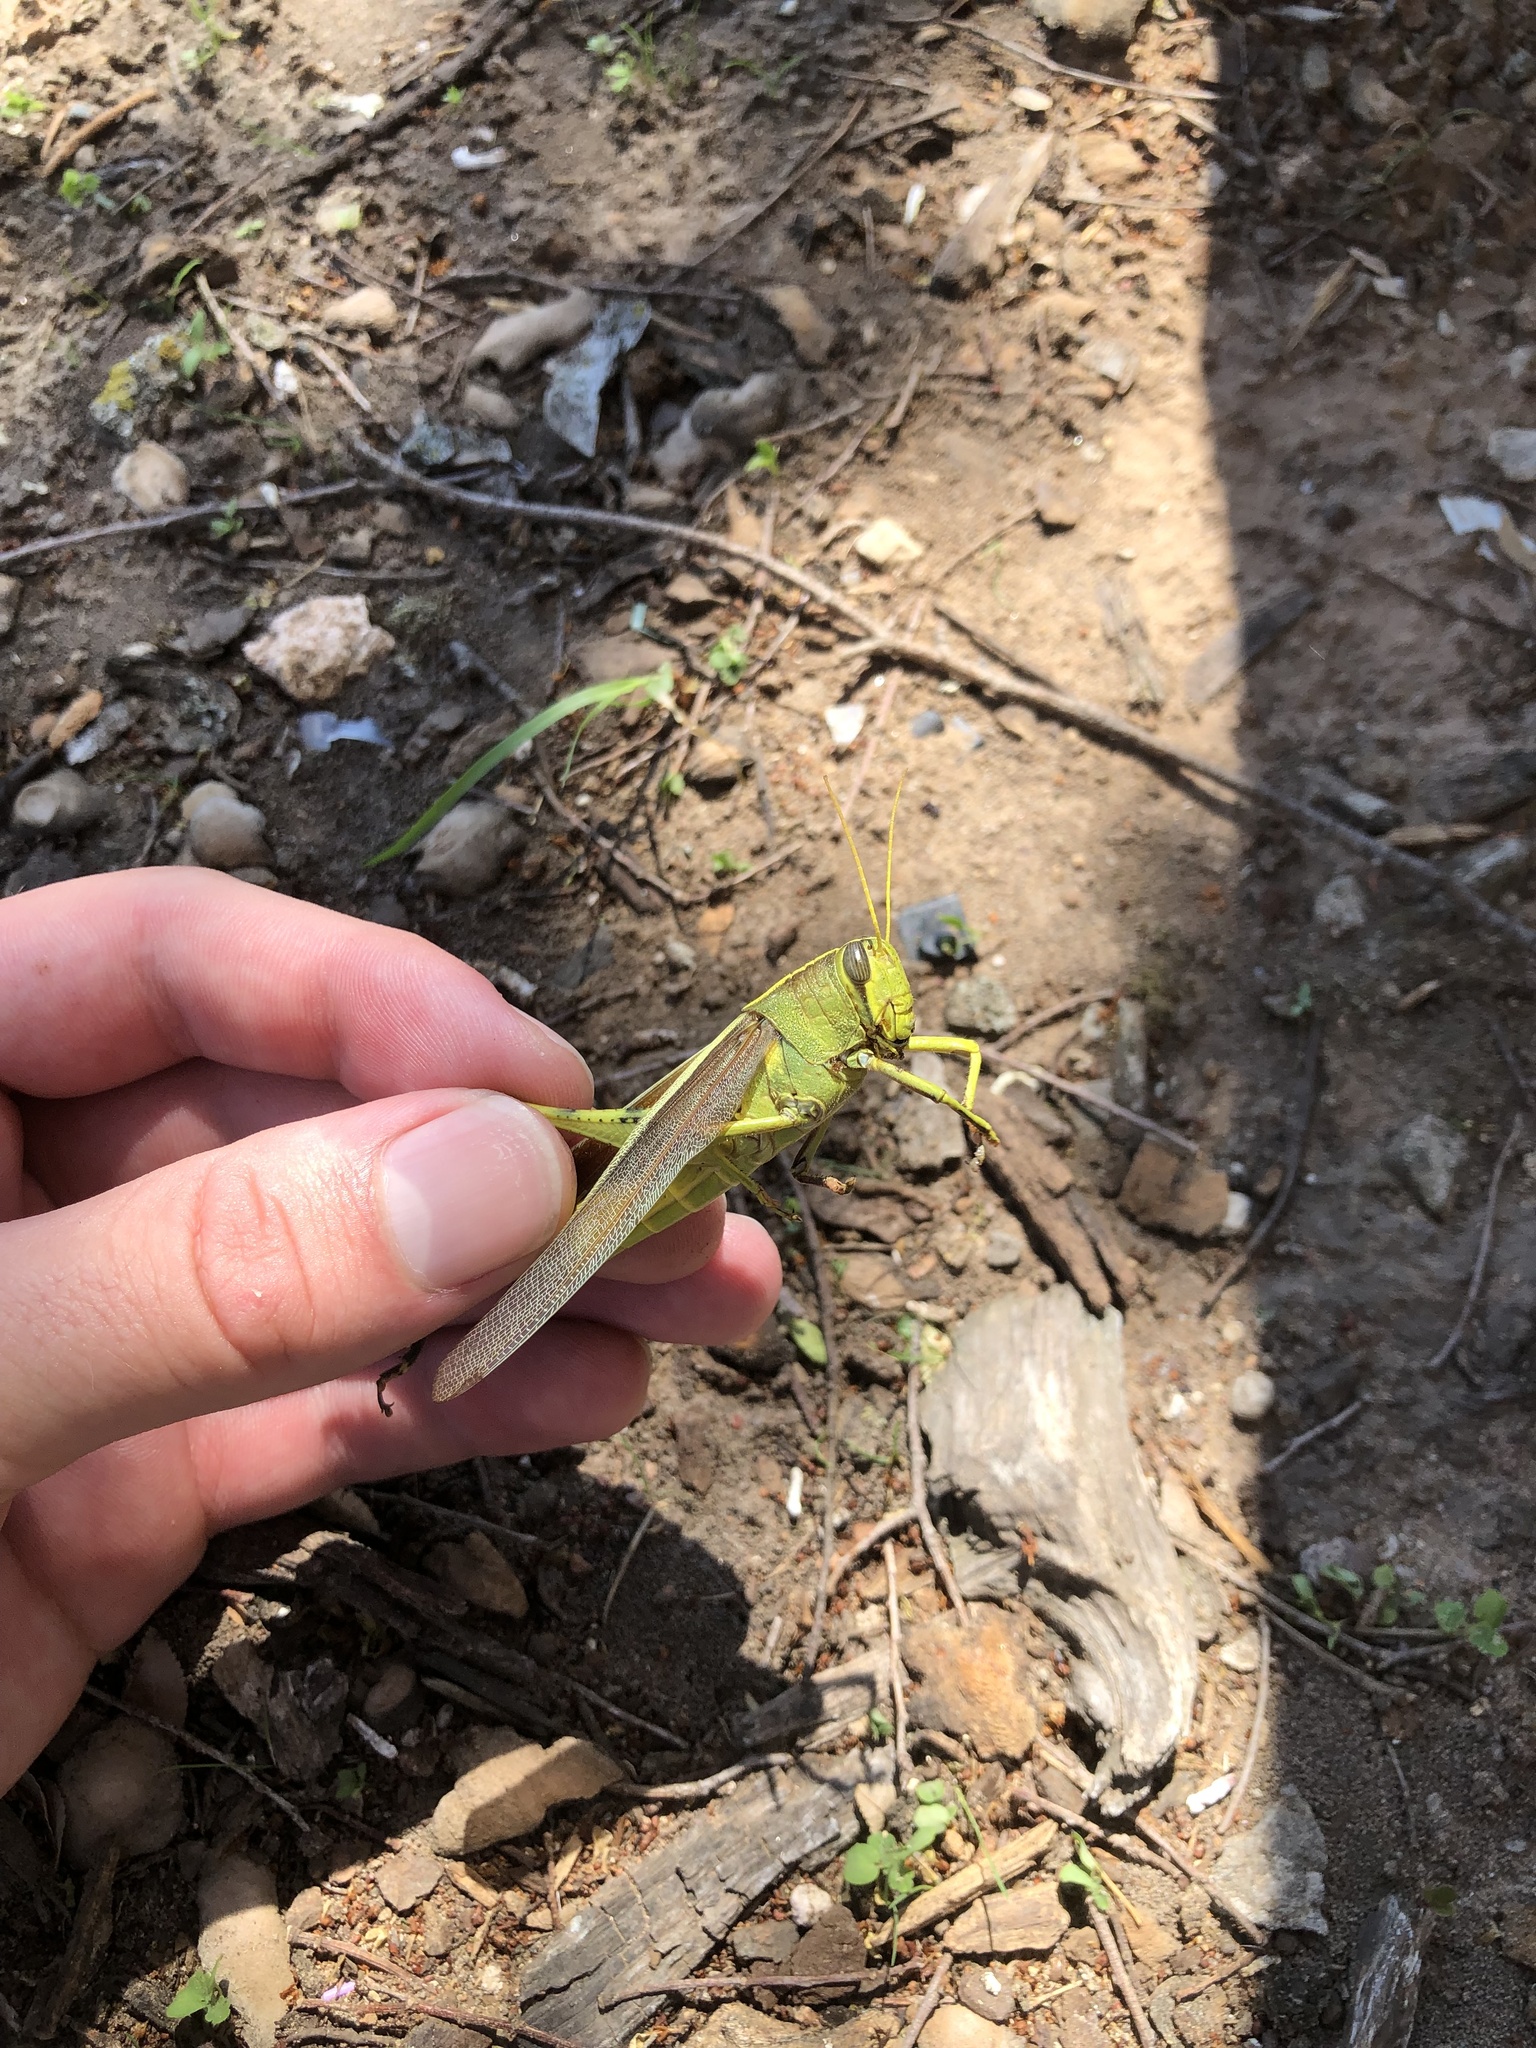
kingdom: Animalia
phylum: Arthropoda
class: Insecta
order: Orthoptera
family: Acrididae
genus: Schistocerca
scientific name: Schistocerca obscura
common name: Obscure bird grasshopper
